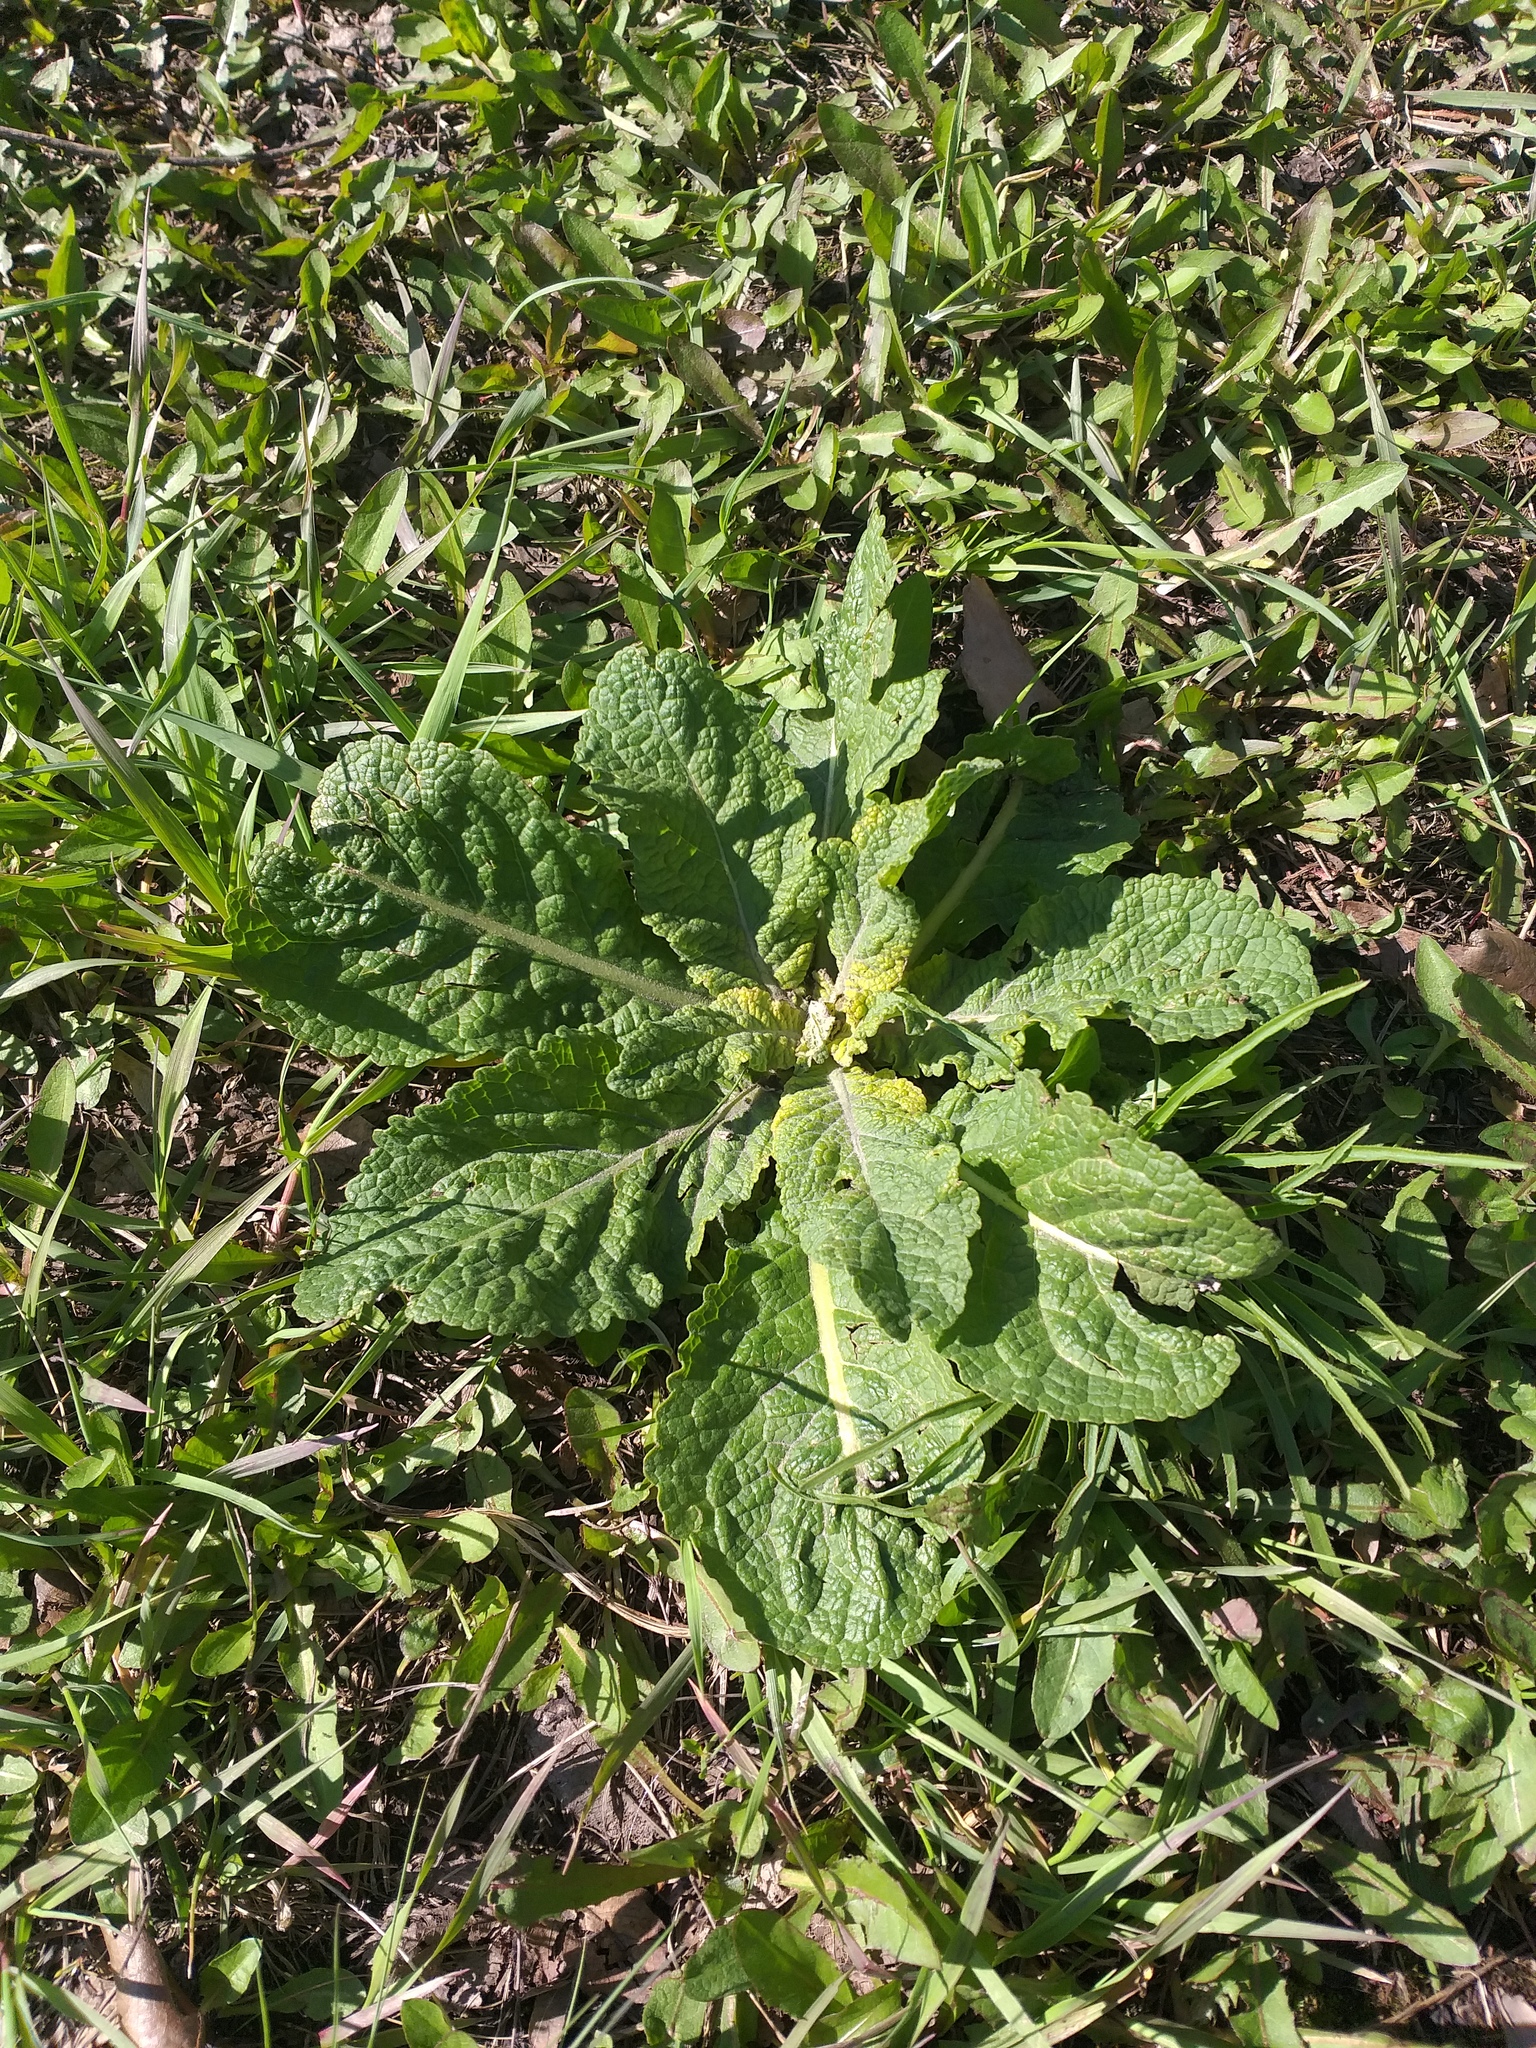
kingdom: Plantae
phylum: Tracheophyta
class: Magnoliopsida
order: Lamiales
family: Scrophulariaceae
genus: Verbascum
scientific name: Verbascum lychnitis
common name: White mullein
